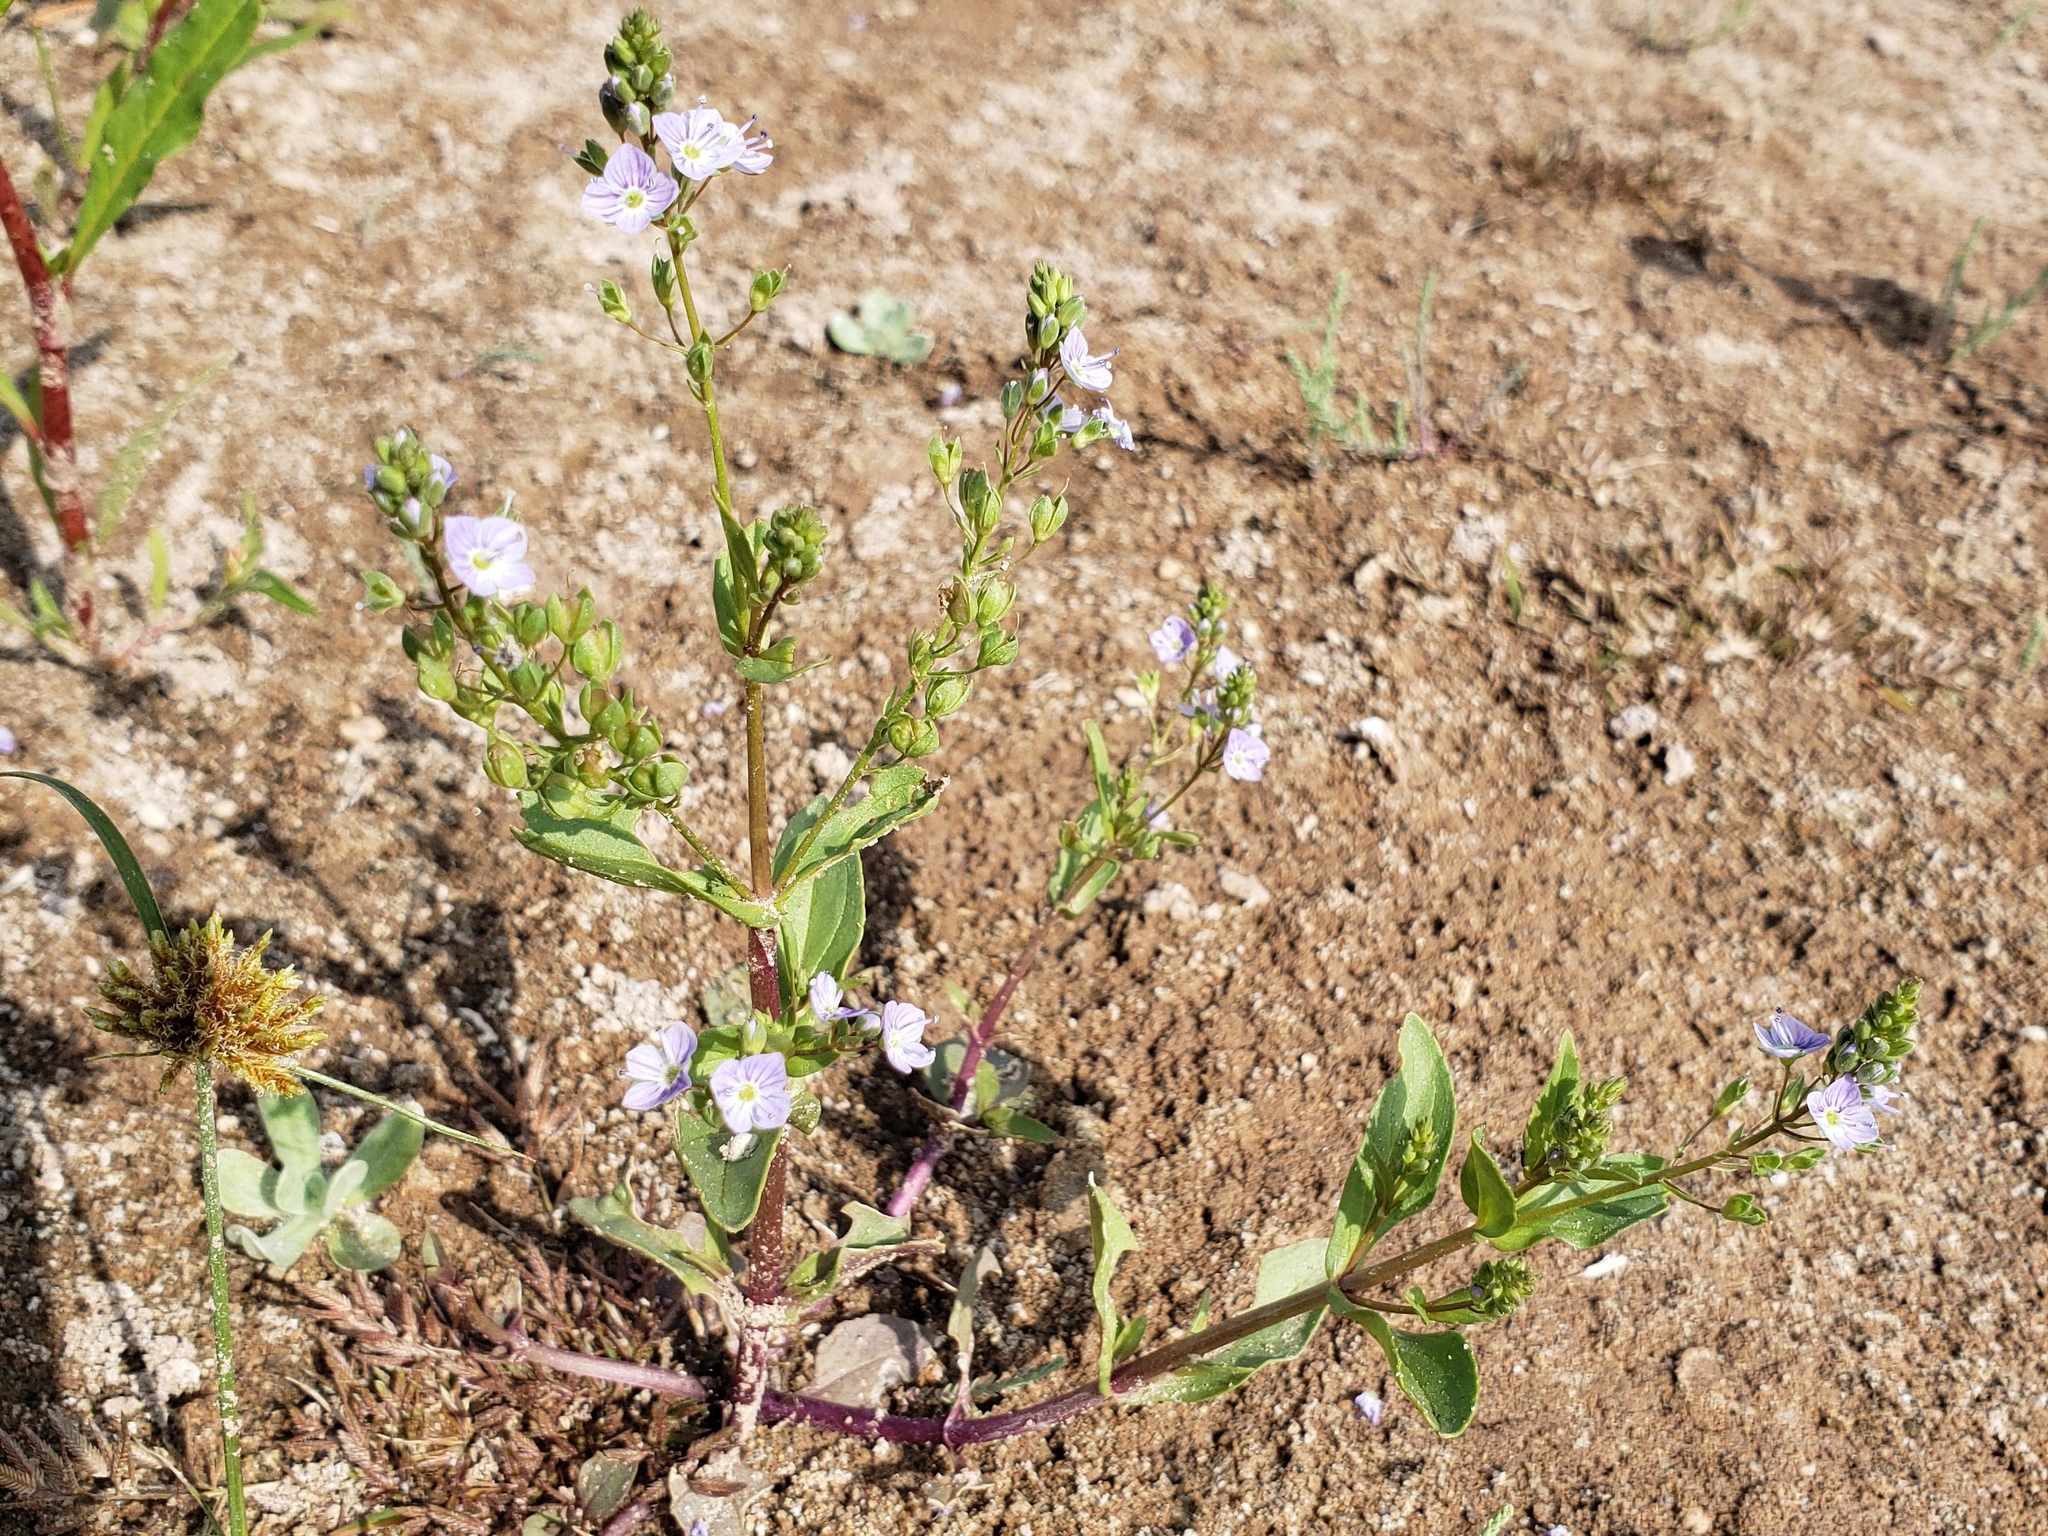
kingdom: Plantae
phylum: Tracheophyta
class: Magnoliopsida
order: Lamiales
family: Plantaginaceae
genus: Veronica
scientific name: Veronica anagallis-aquatica
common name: Water speedwell
